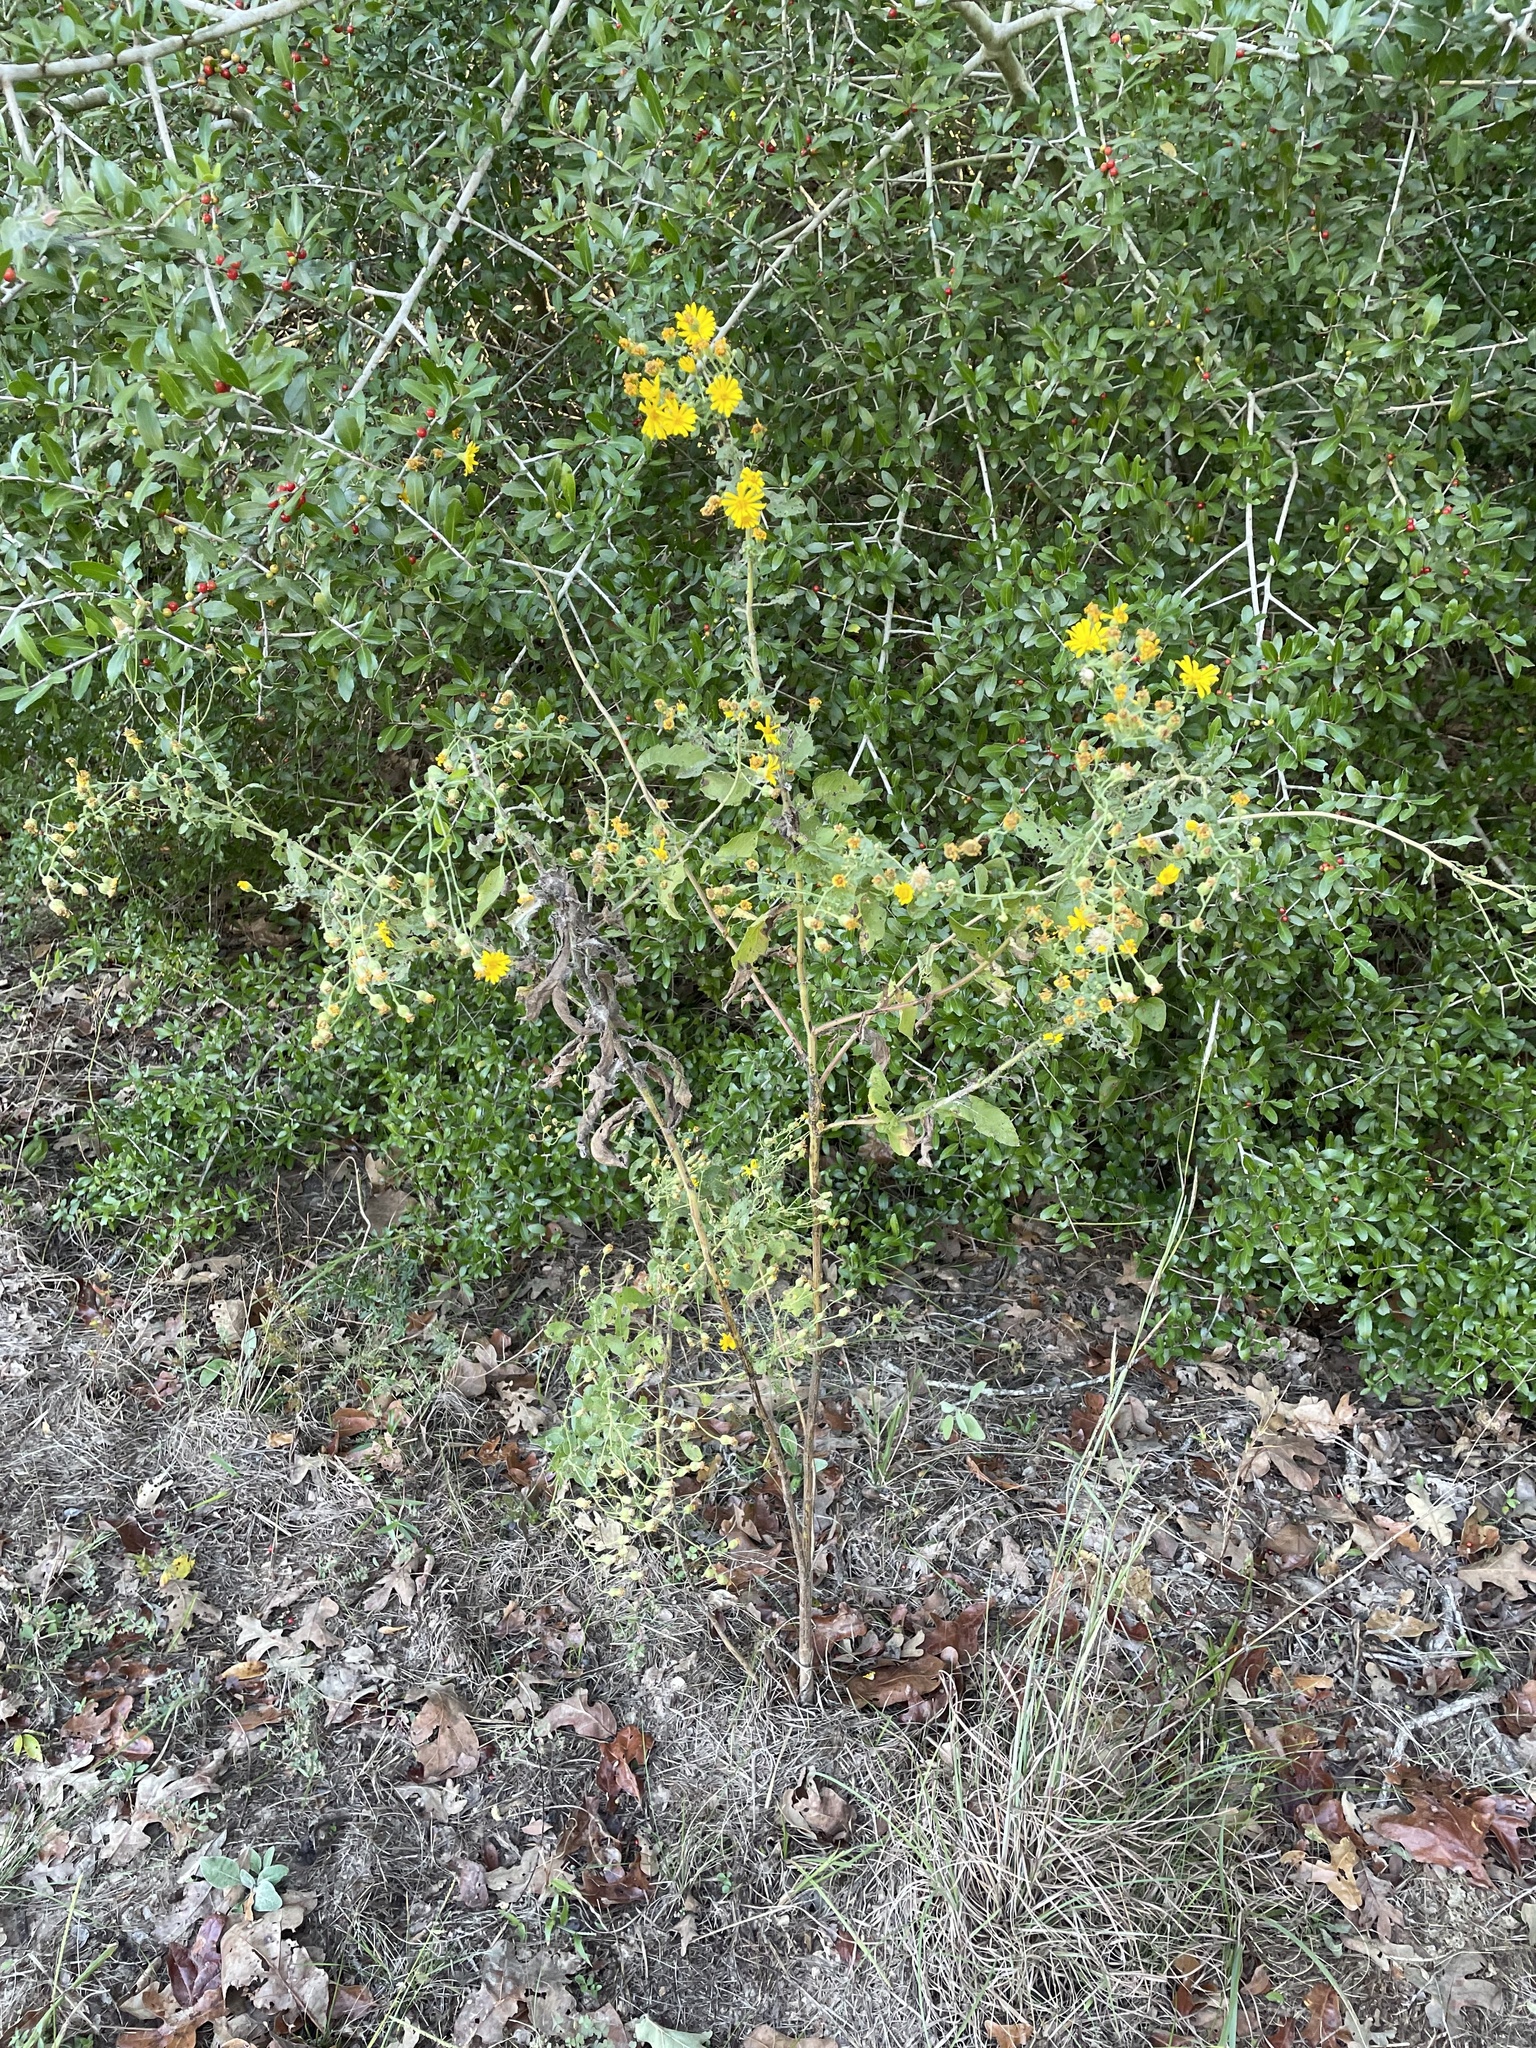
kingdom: Plantae
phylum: Tracheophyta
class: Magnoliopsida
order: Asterales
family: Asteraceae
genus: Heterotheca
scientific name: Heterotheca subaxillaris
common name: Camphorweed
